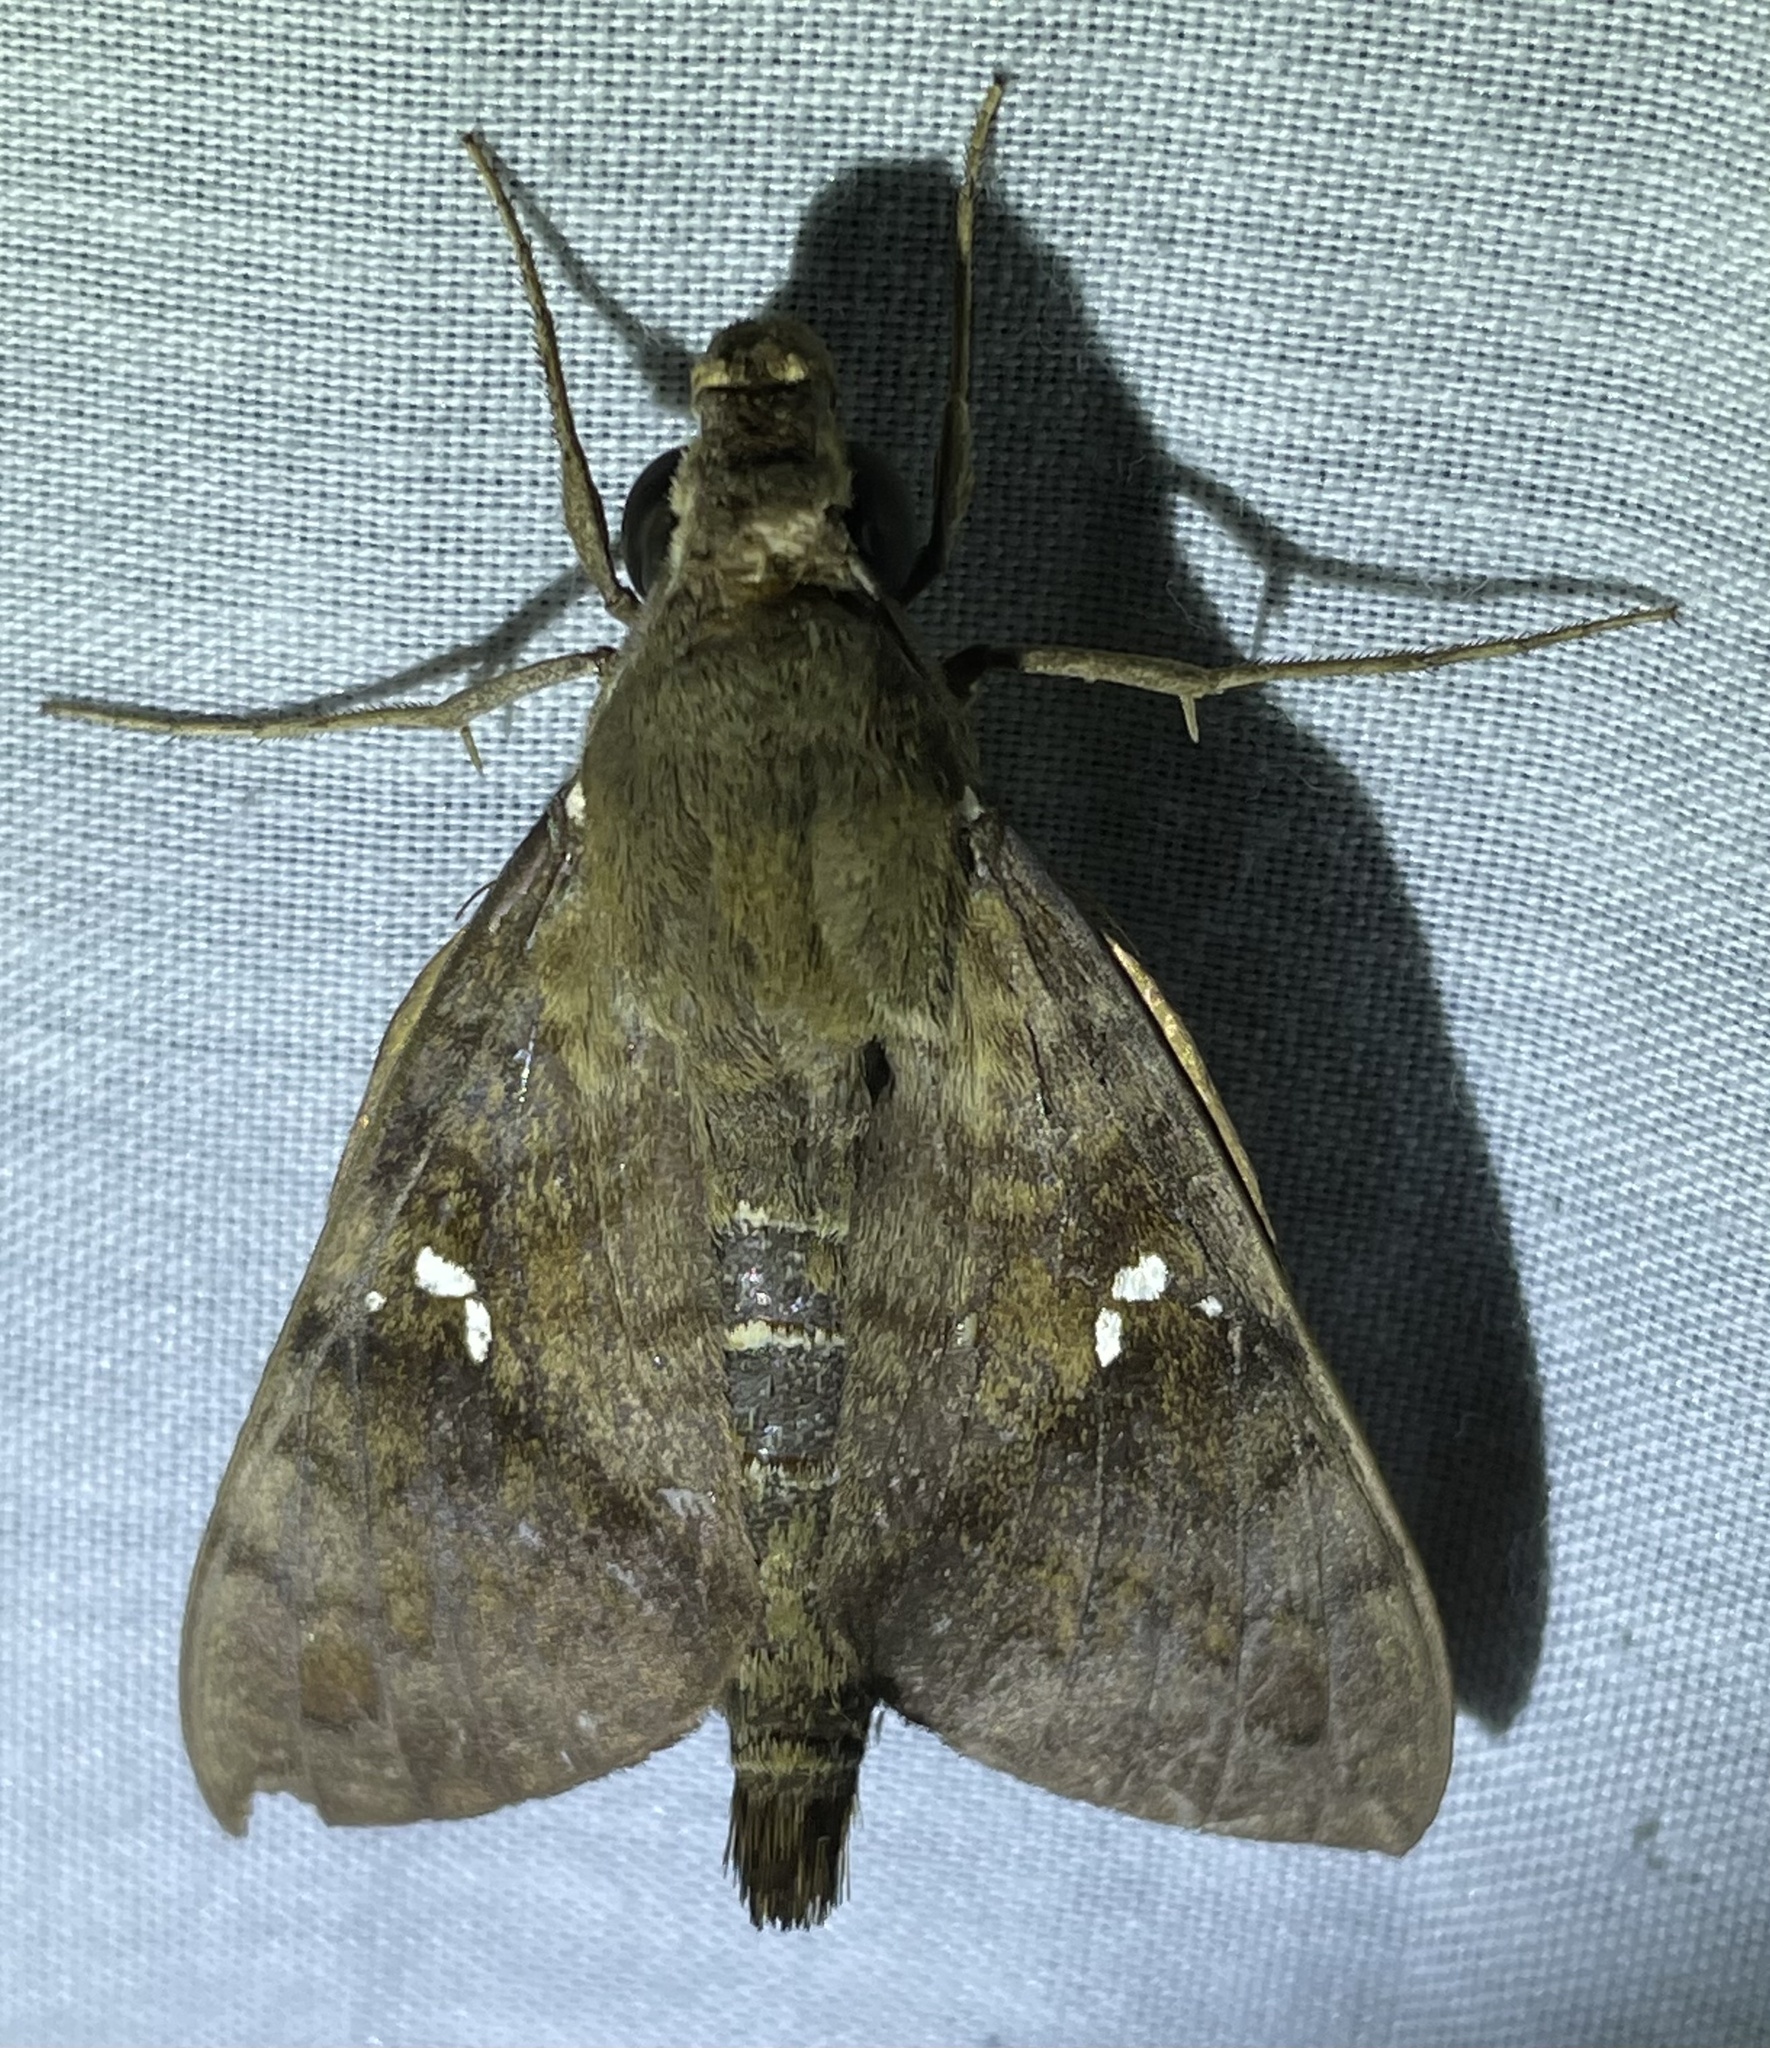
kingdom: Animalia
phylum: Arthropoda
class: Insecta
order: Lepidoptera
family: Sphingidae
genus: Nephele
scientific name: Nephele peneus
